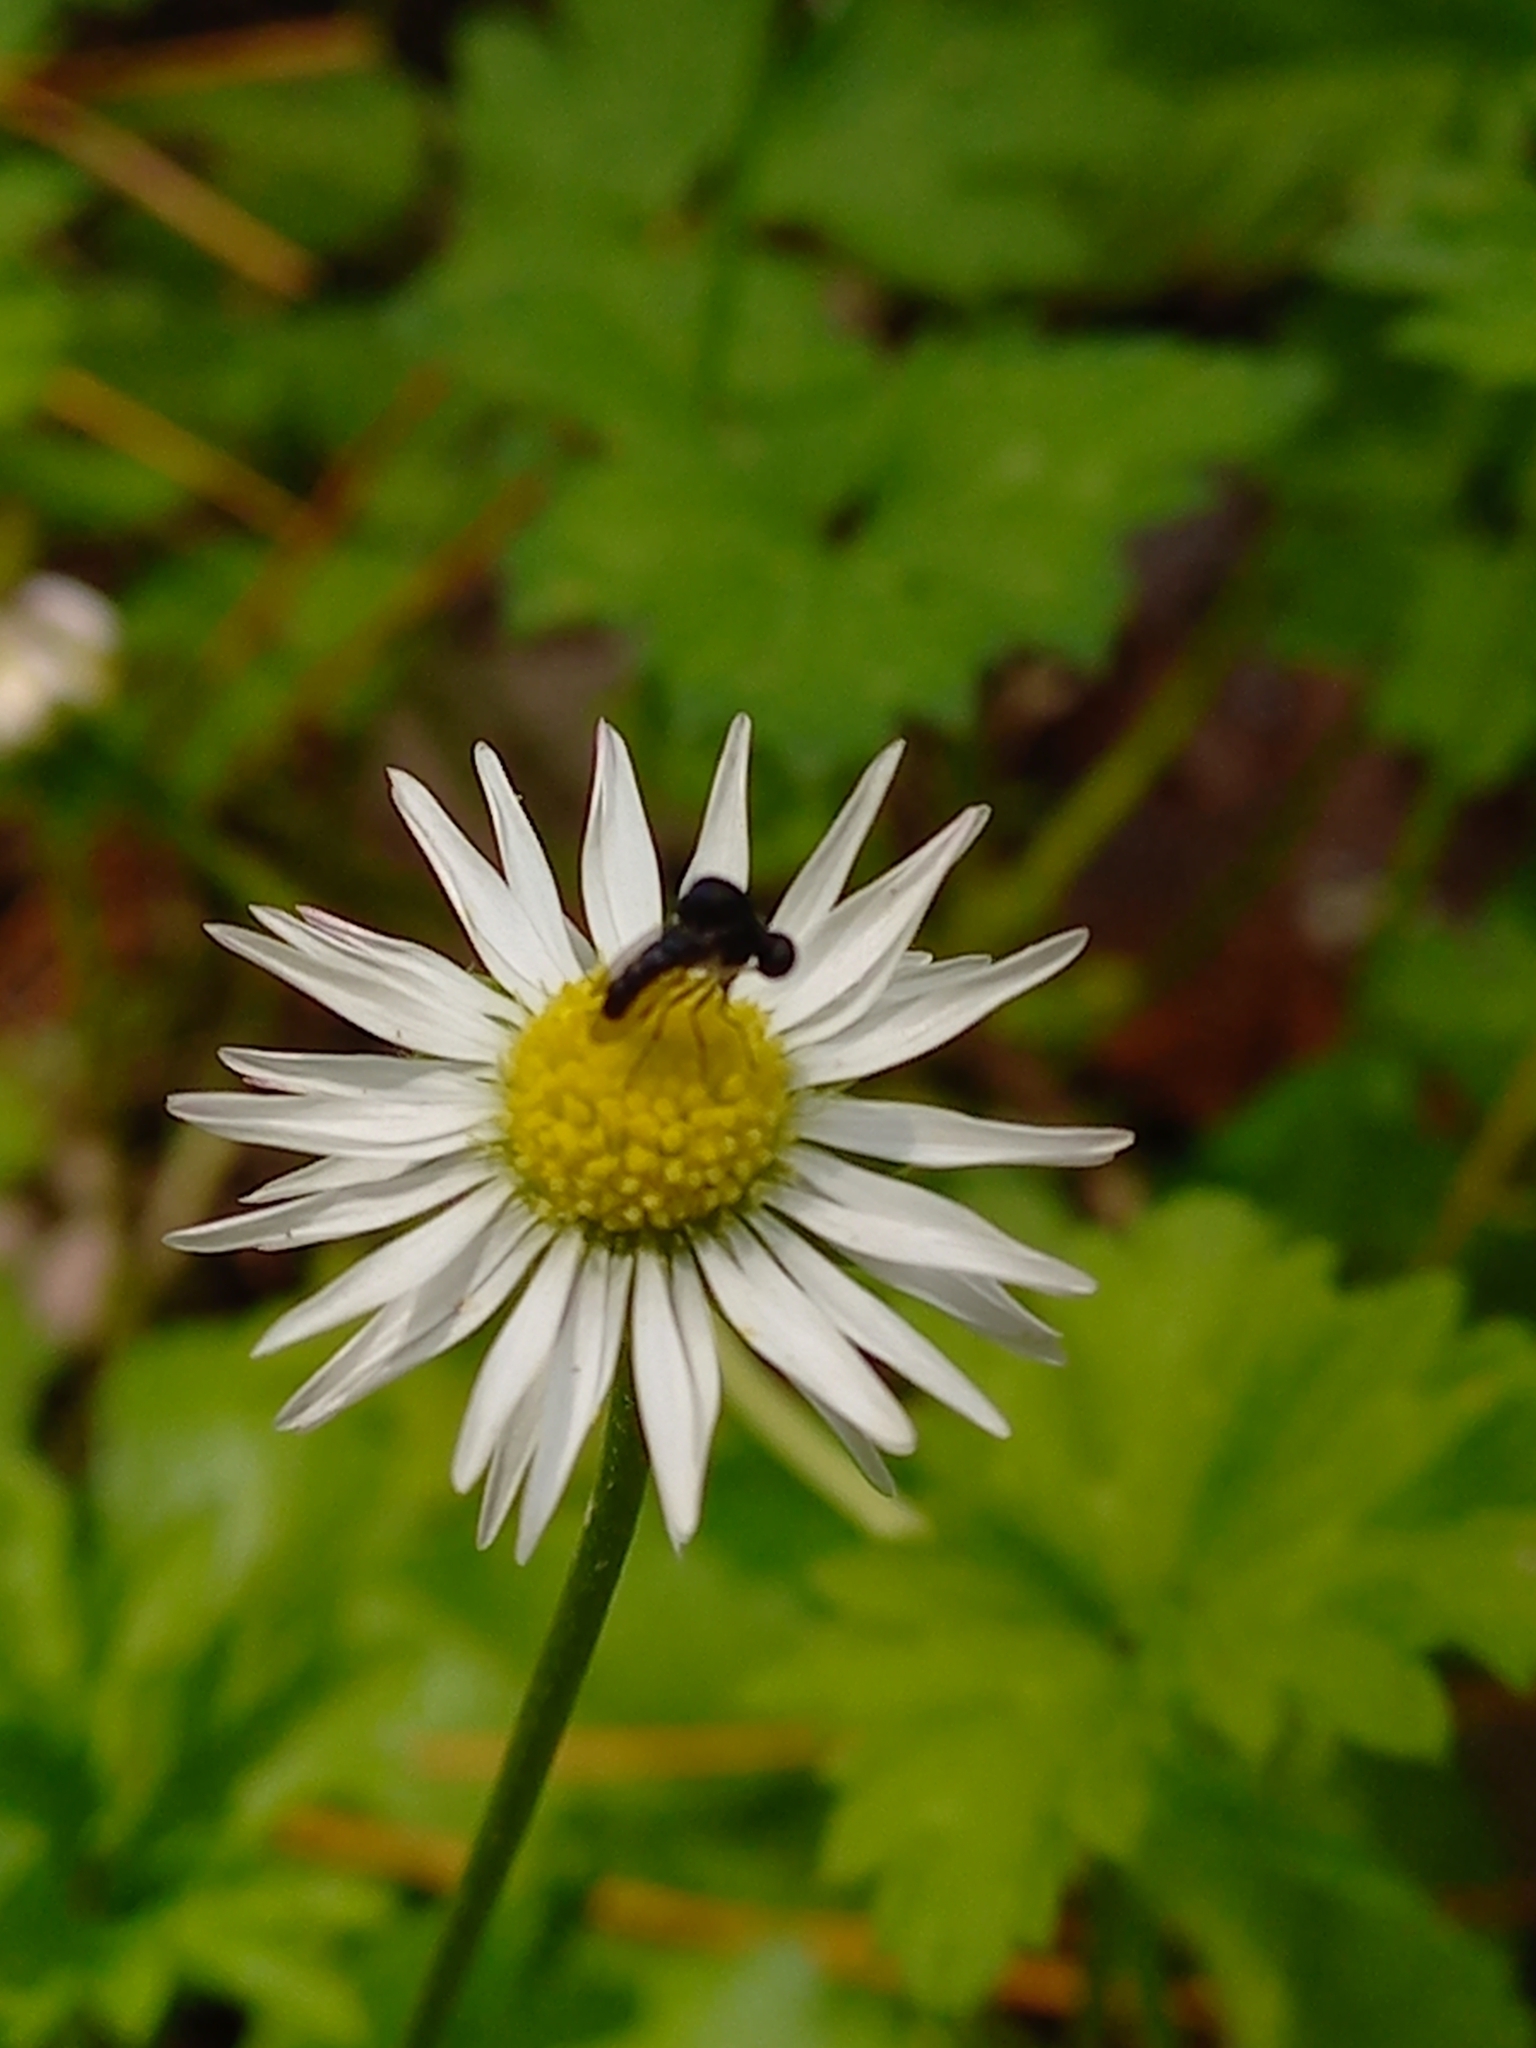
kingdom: Animalia
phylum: Arthropoda
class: Insecta
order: Diptera
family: Acroceridae
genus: Helle
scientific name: Helle longirostris
